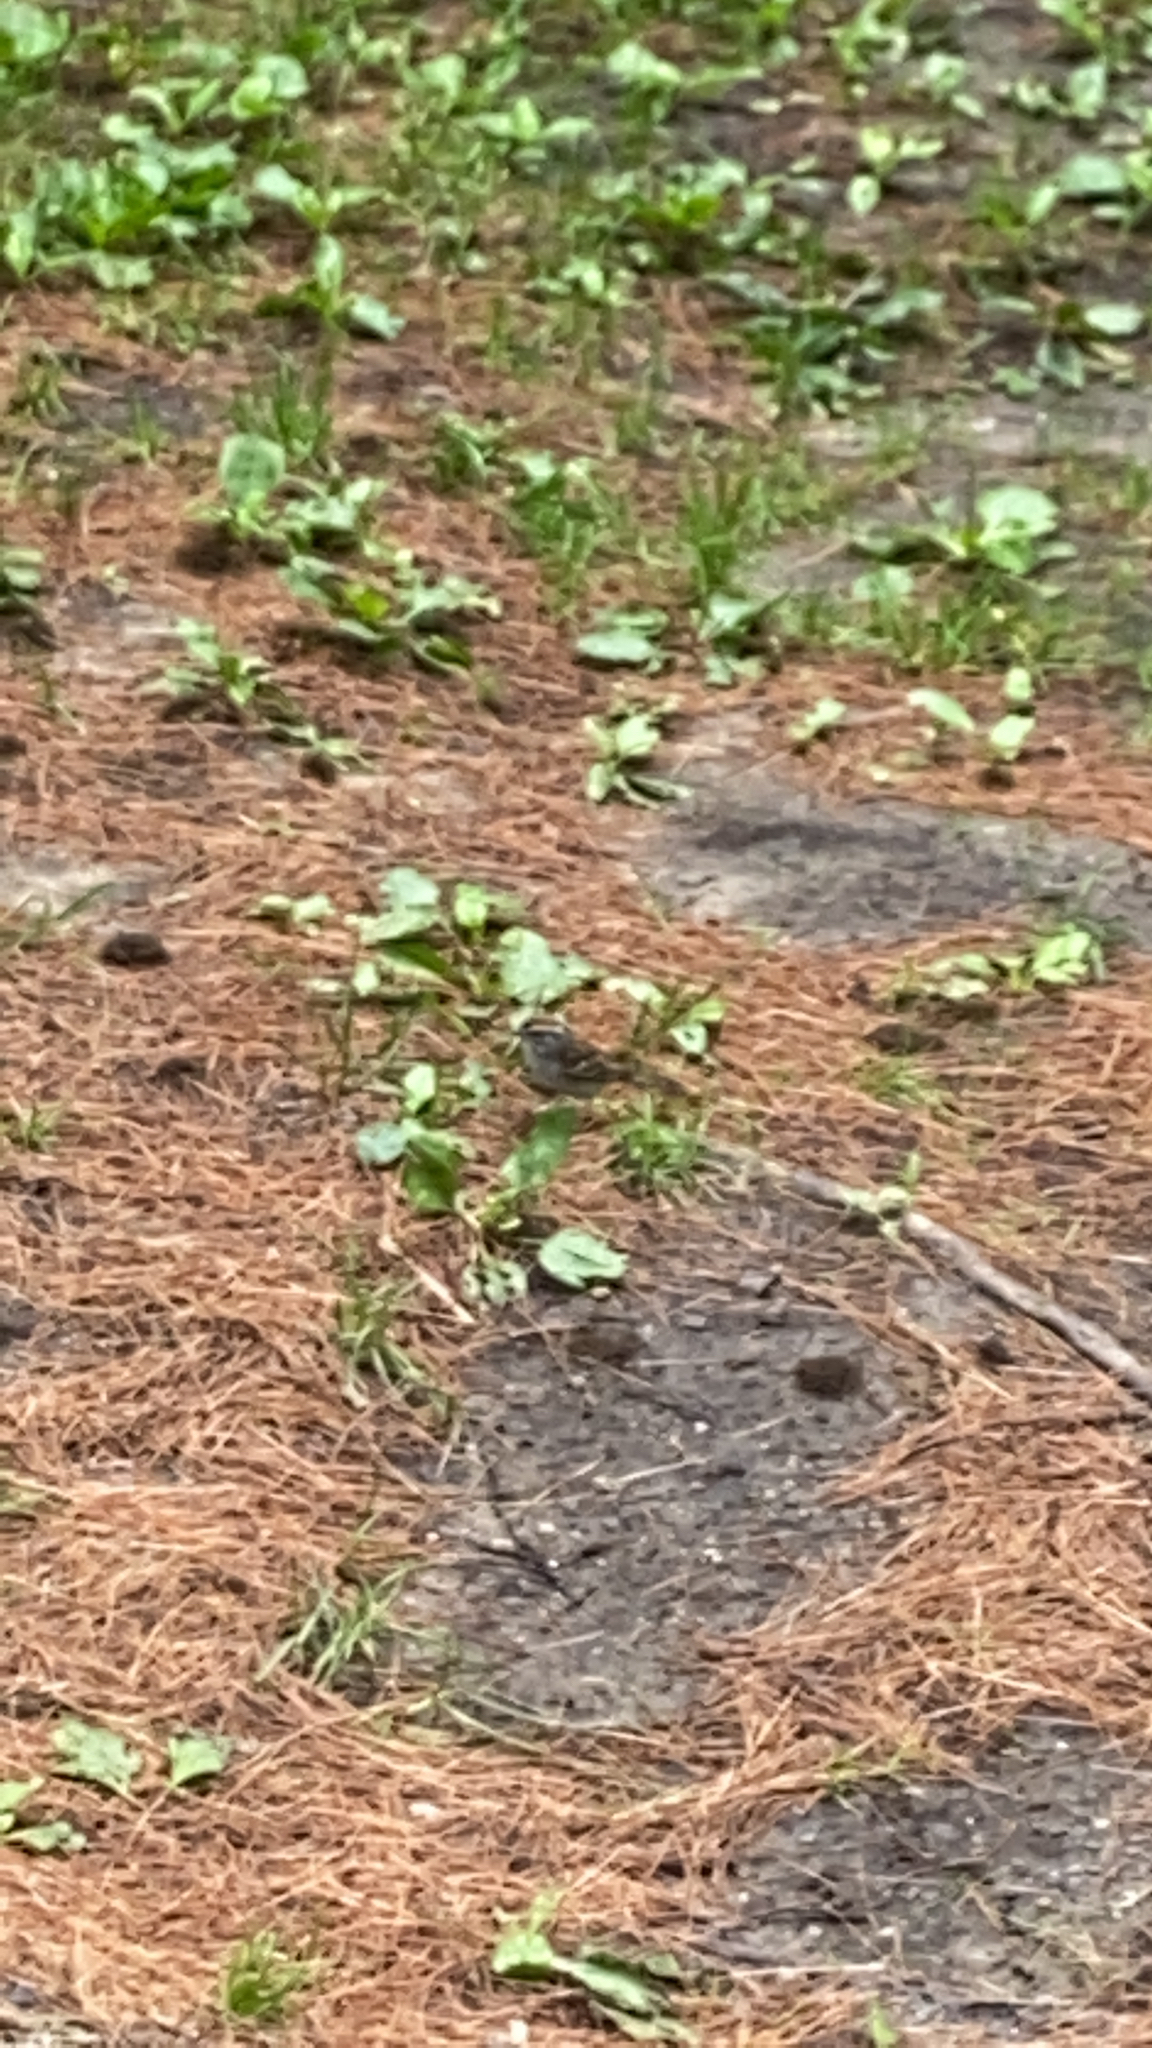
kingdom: Animalia
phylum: Chordata
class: Aves
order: Passeriformes
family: Passerellidae
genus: Spizella
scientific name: Spizella passerina
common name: Chipping sparrow
